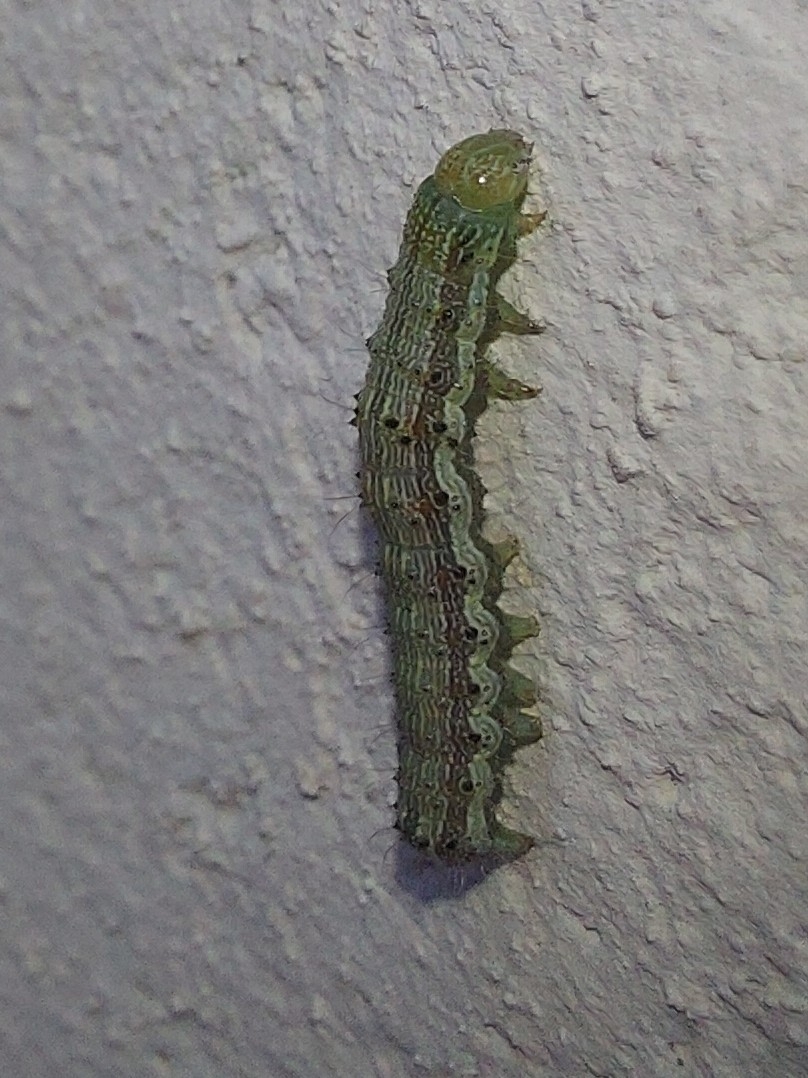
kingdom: Animalia
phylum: Arthropoda
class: Insecta
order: Lepidoptera
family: Noctuidae
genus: Helicoverpa
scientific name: Helicoverpa armigera
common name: Cotton bollworm
